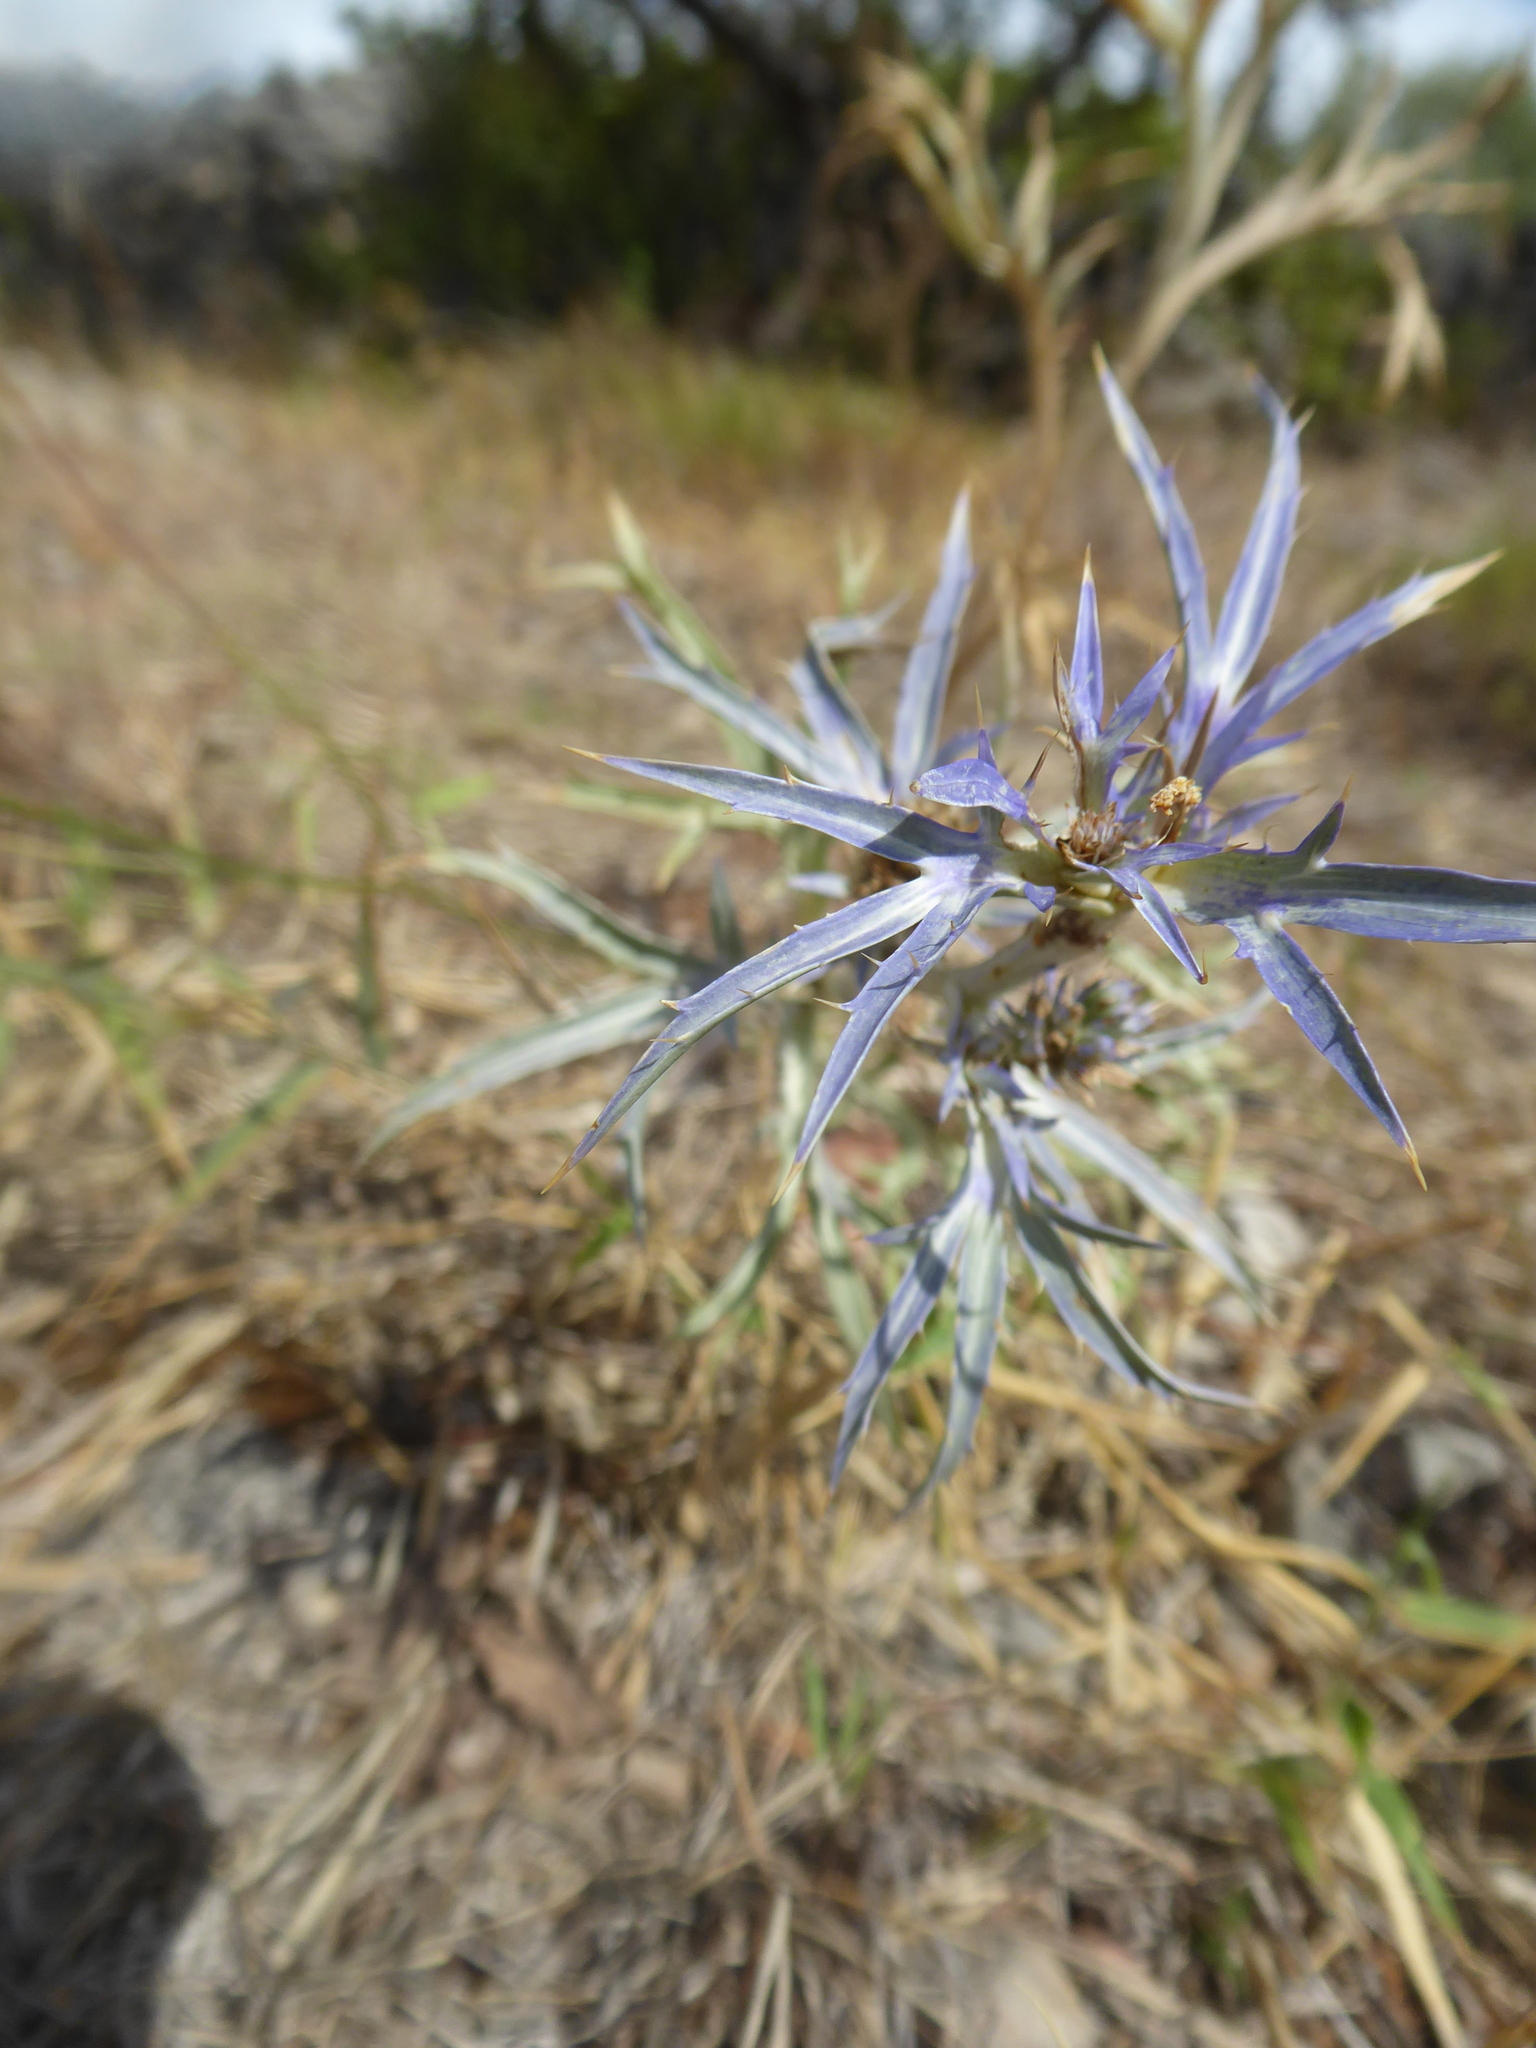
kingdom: Plantae
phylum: Tracheophyta
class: Magnoliopsida
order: Apiales
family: Apiaceae
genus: Eryngium
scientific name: Eryngium amethystinum
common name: Amethyst eryngo
